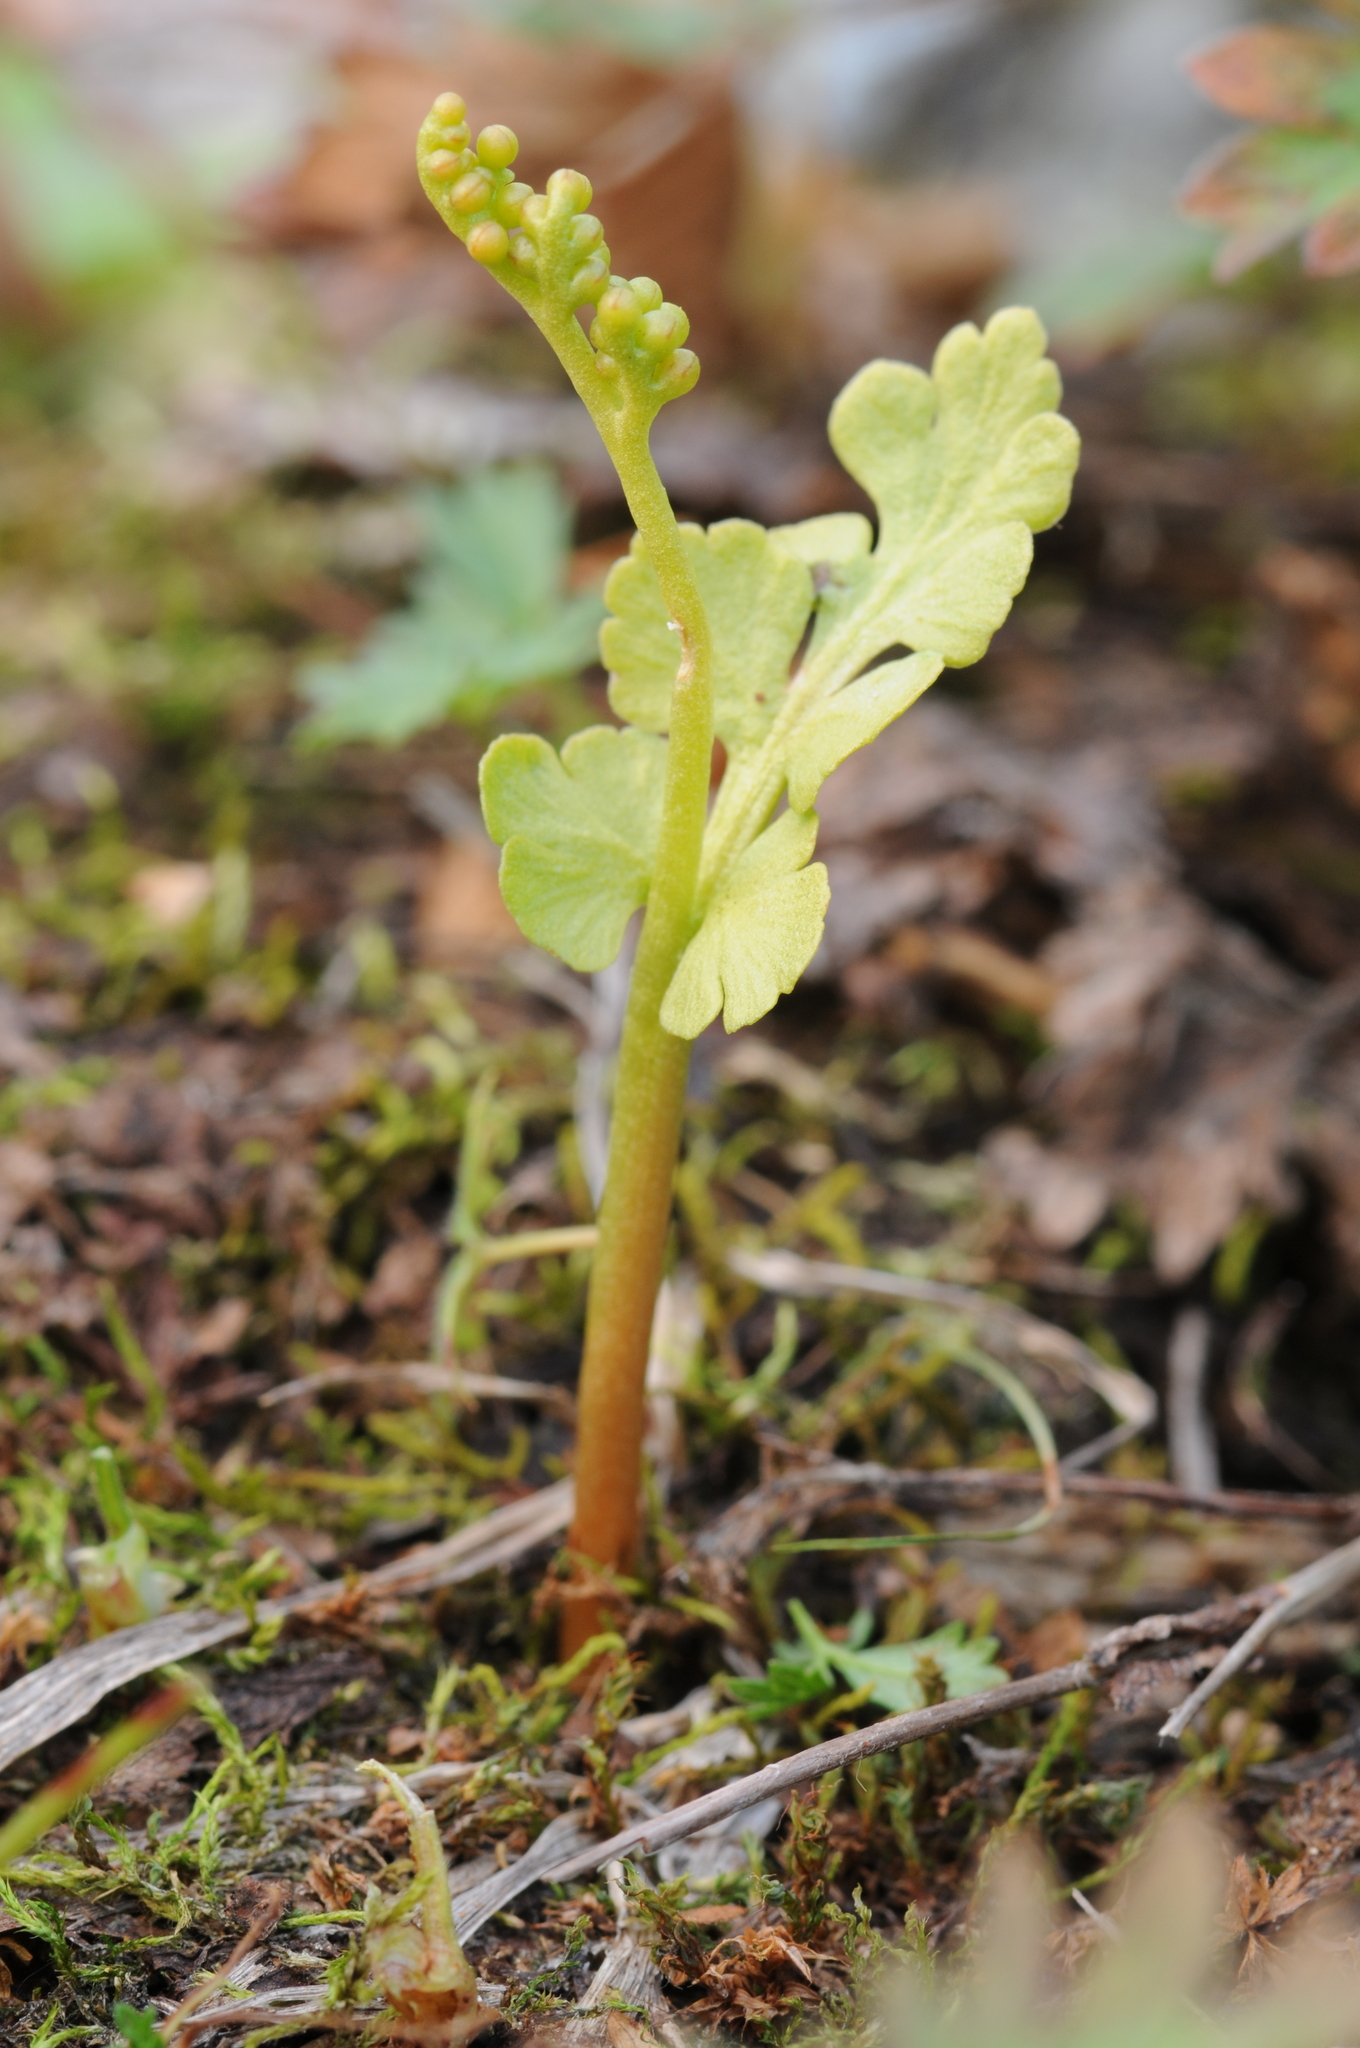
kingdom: Plantae
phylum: Tracheophyta
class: Polypodiopsida
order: Ophioglossales
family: Ophioglossaceae
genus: Botrychium
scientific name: Botrychium pinnatum
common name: Northwestern moonwort
